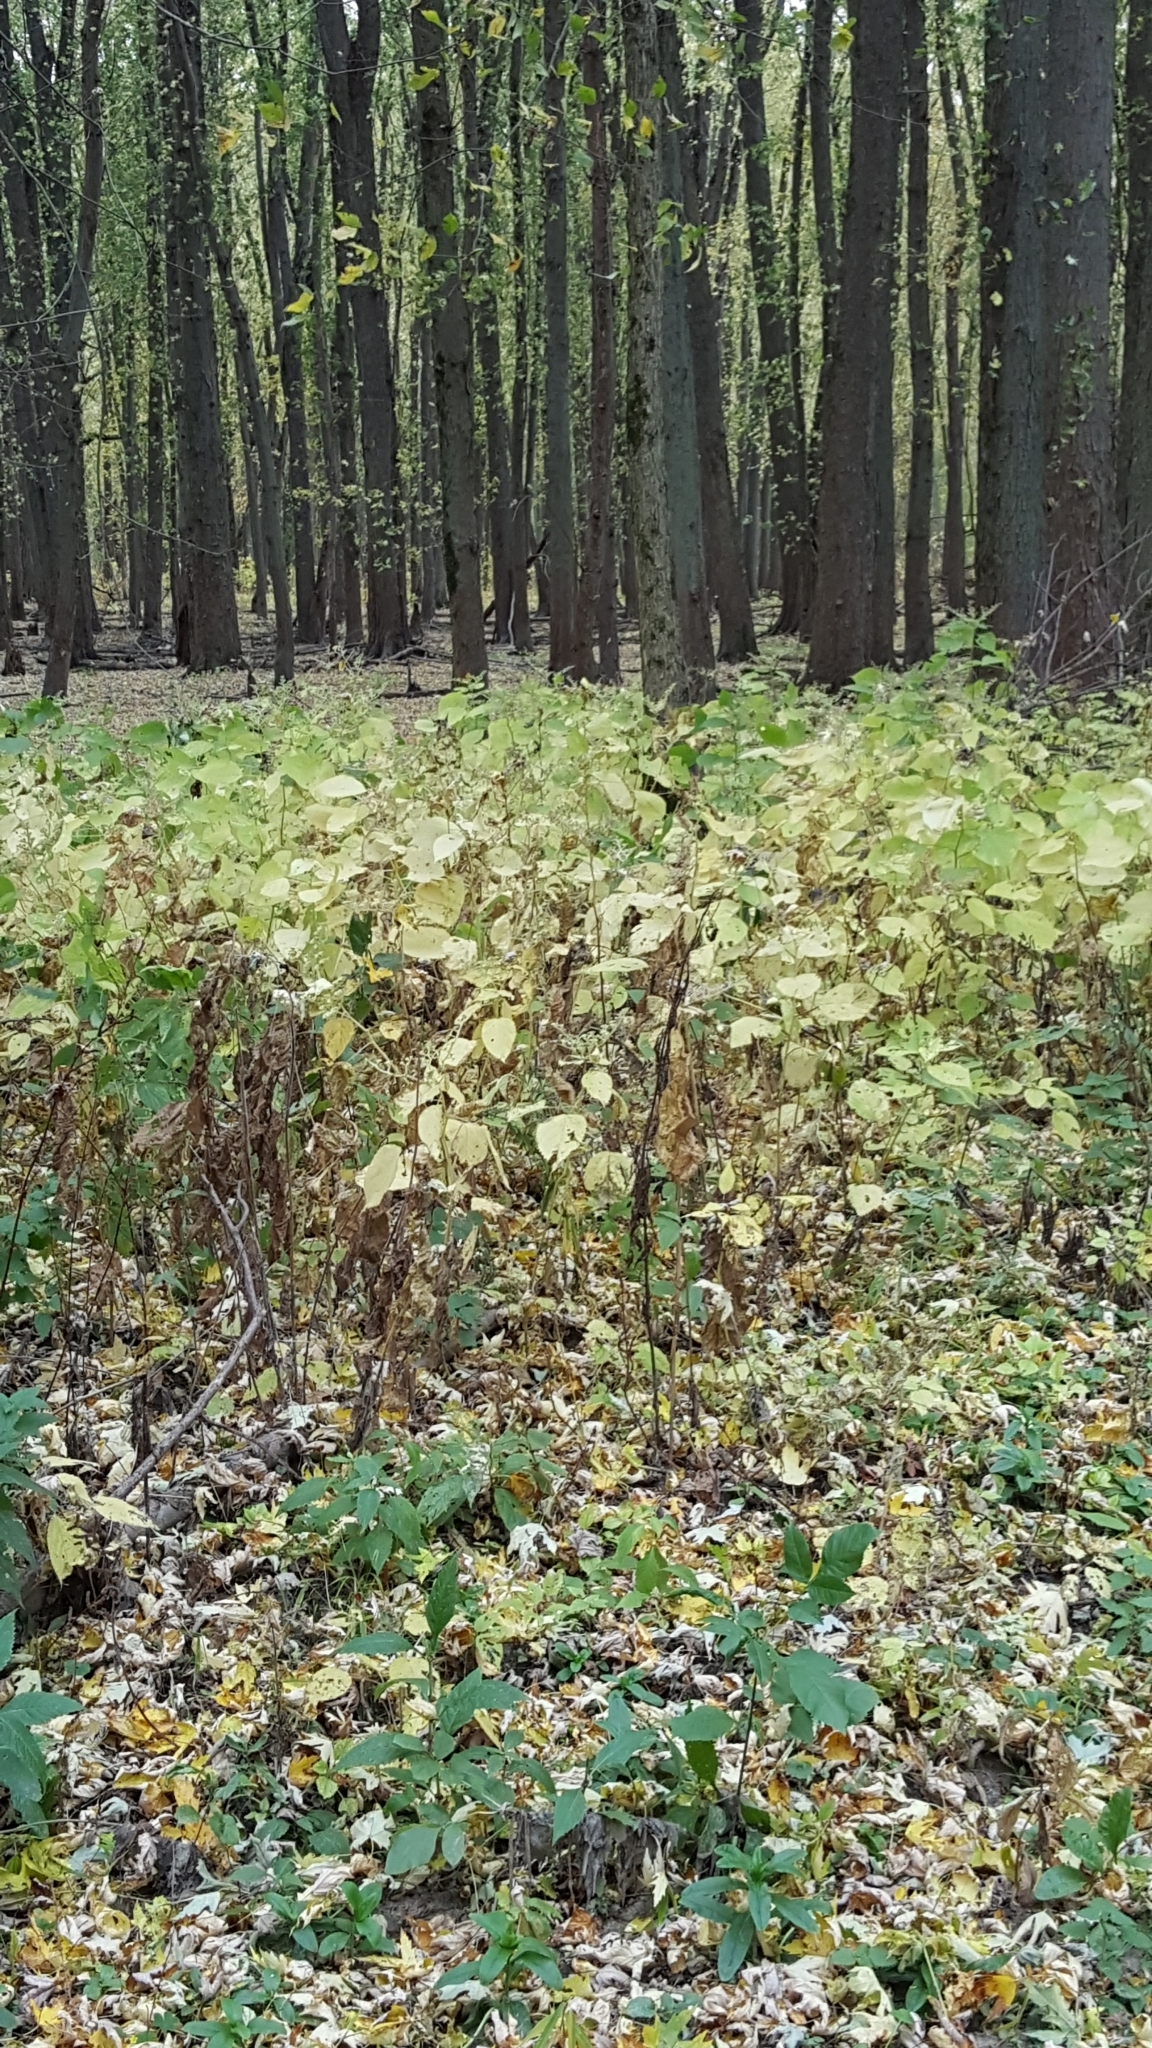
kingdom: Plantae
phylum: Tracheophyta
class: Magnoliopsida
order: Rosales
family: Urticaceae
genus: Laportea
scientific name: Laportea canadensis
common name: Canada nettle
